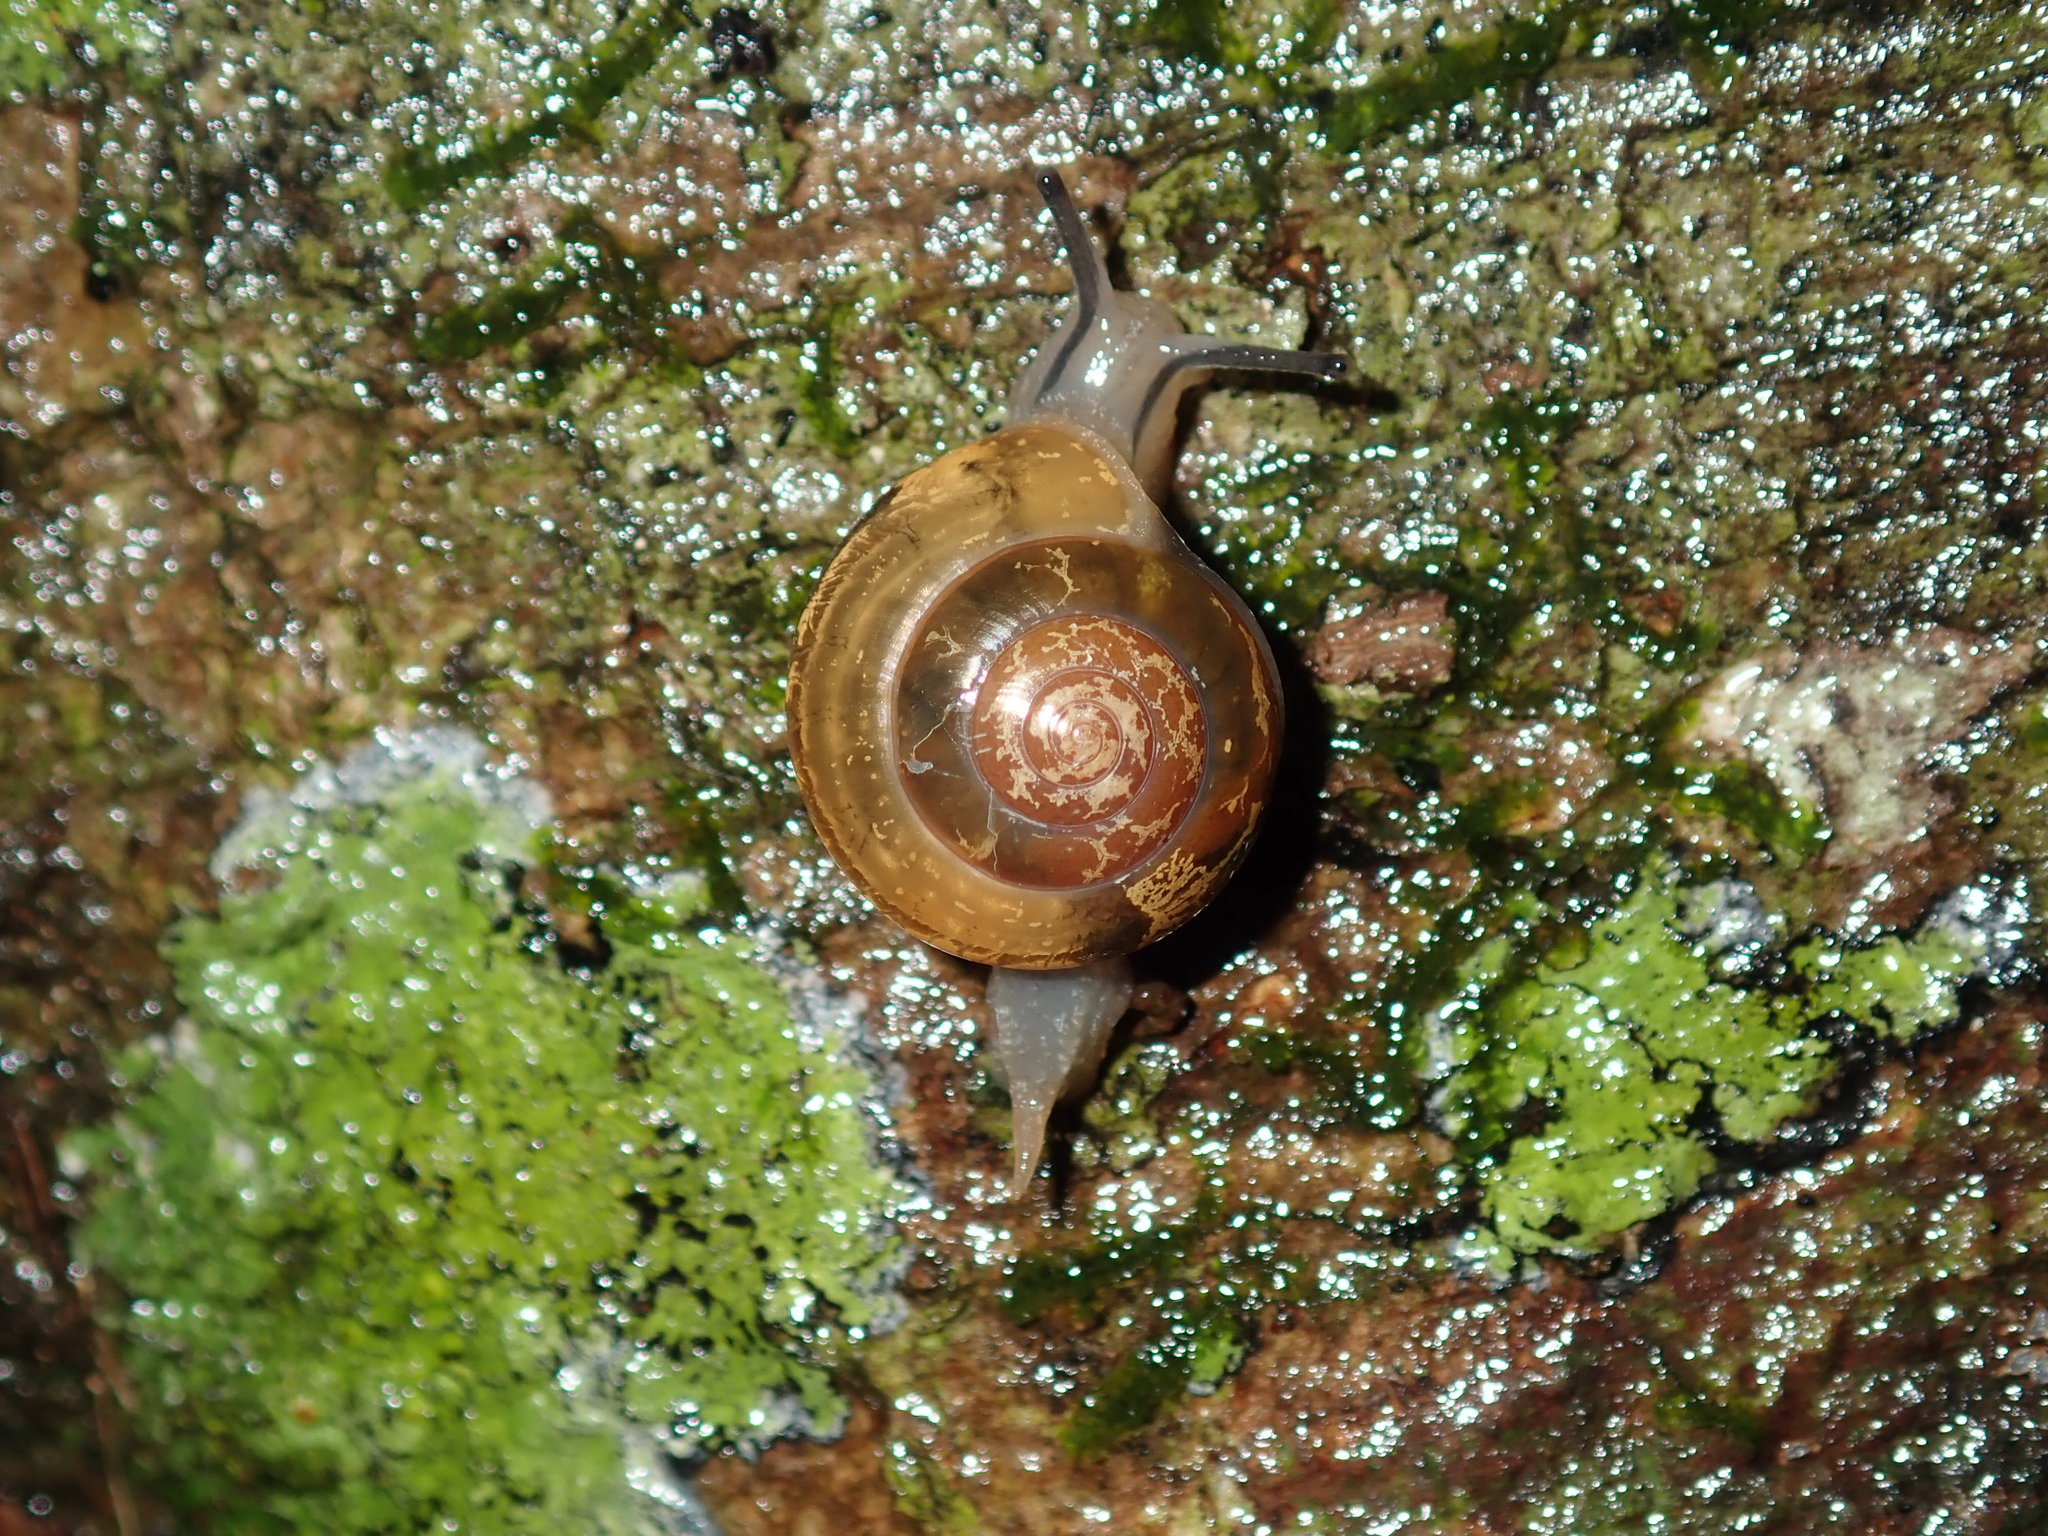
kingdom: Animalia
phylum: Mollusca
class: Gastropoda
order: Stylommatophora
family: Helicarionidae
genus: Nitor
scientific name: Nitor sheai
